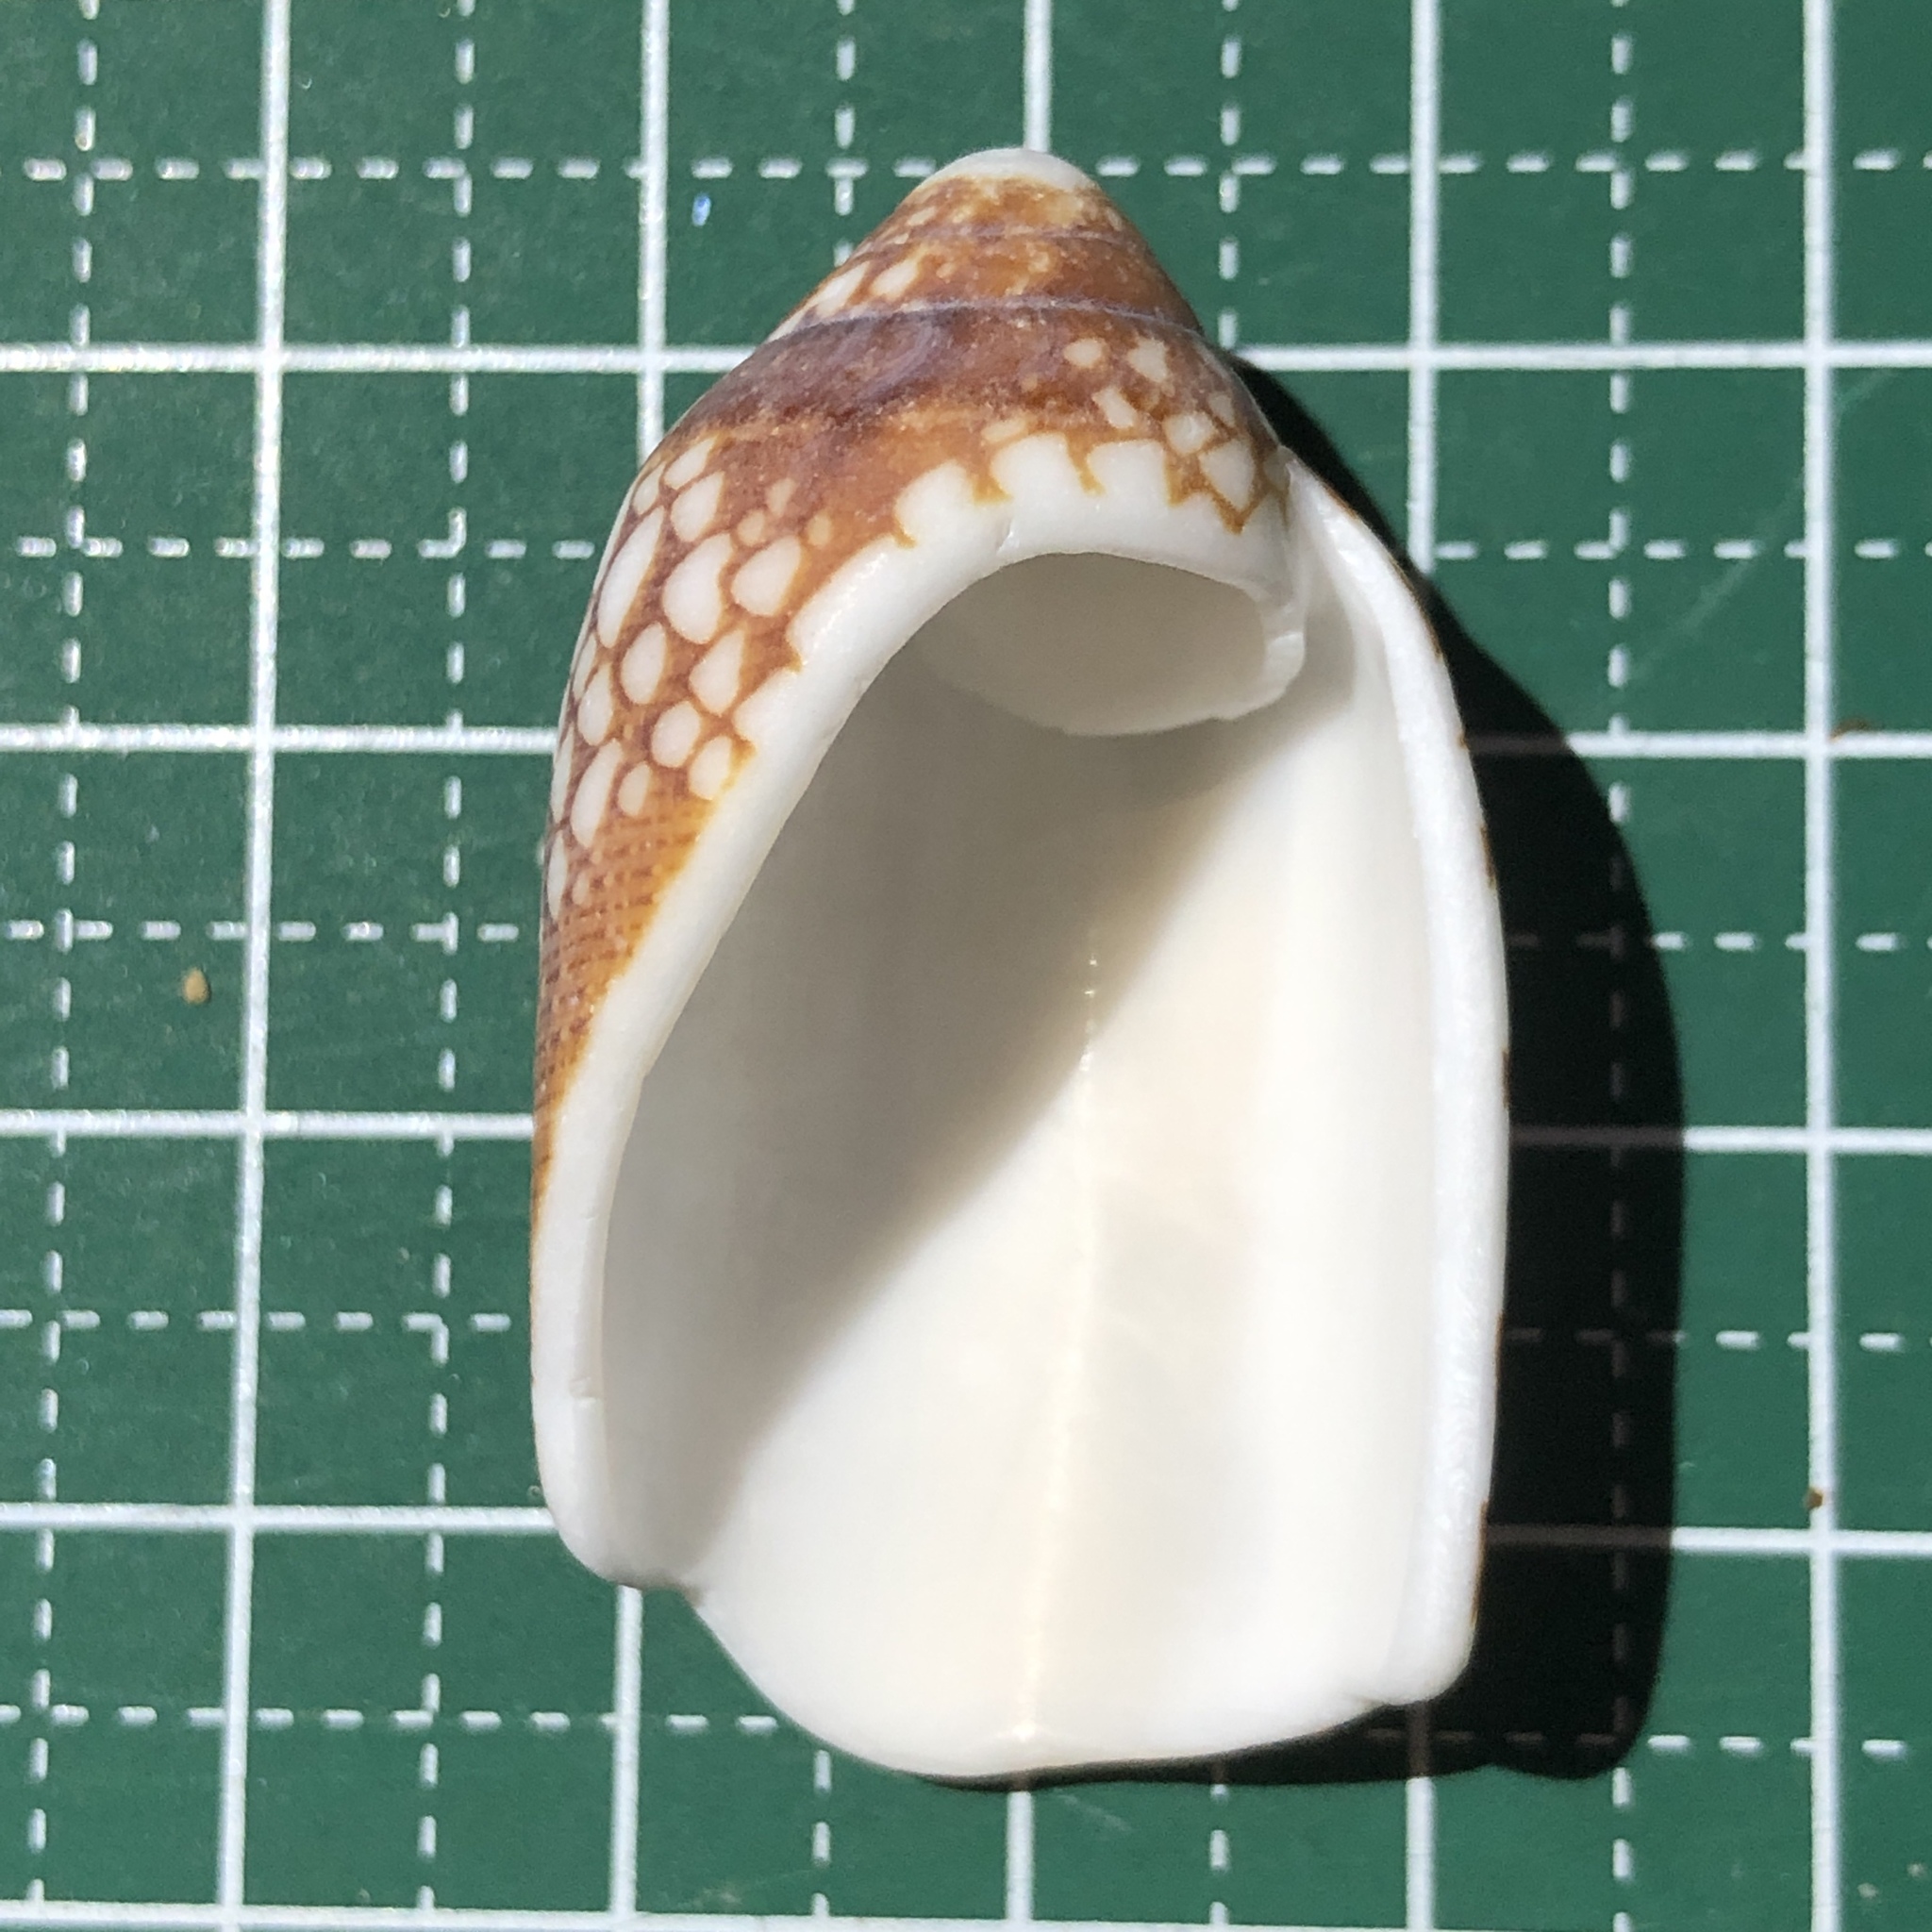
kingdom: Animalia
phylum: Mollusca
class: Gastropoda
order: Neogastropoda
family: Conidae
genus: Conus
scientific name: Conus aulicus
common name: Court cone
